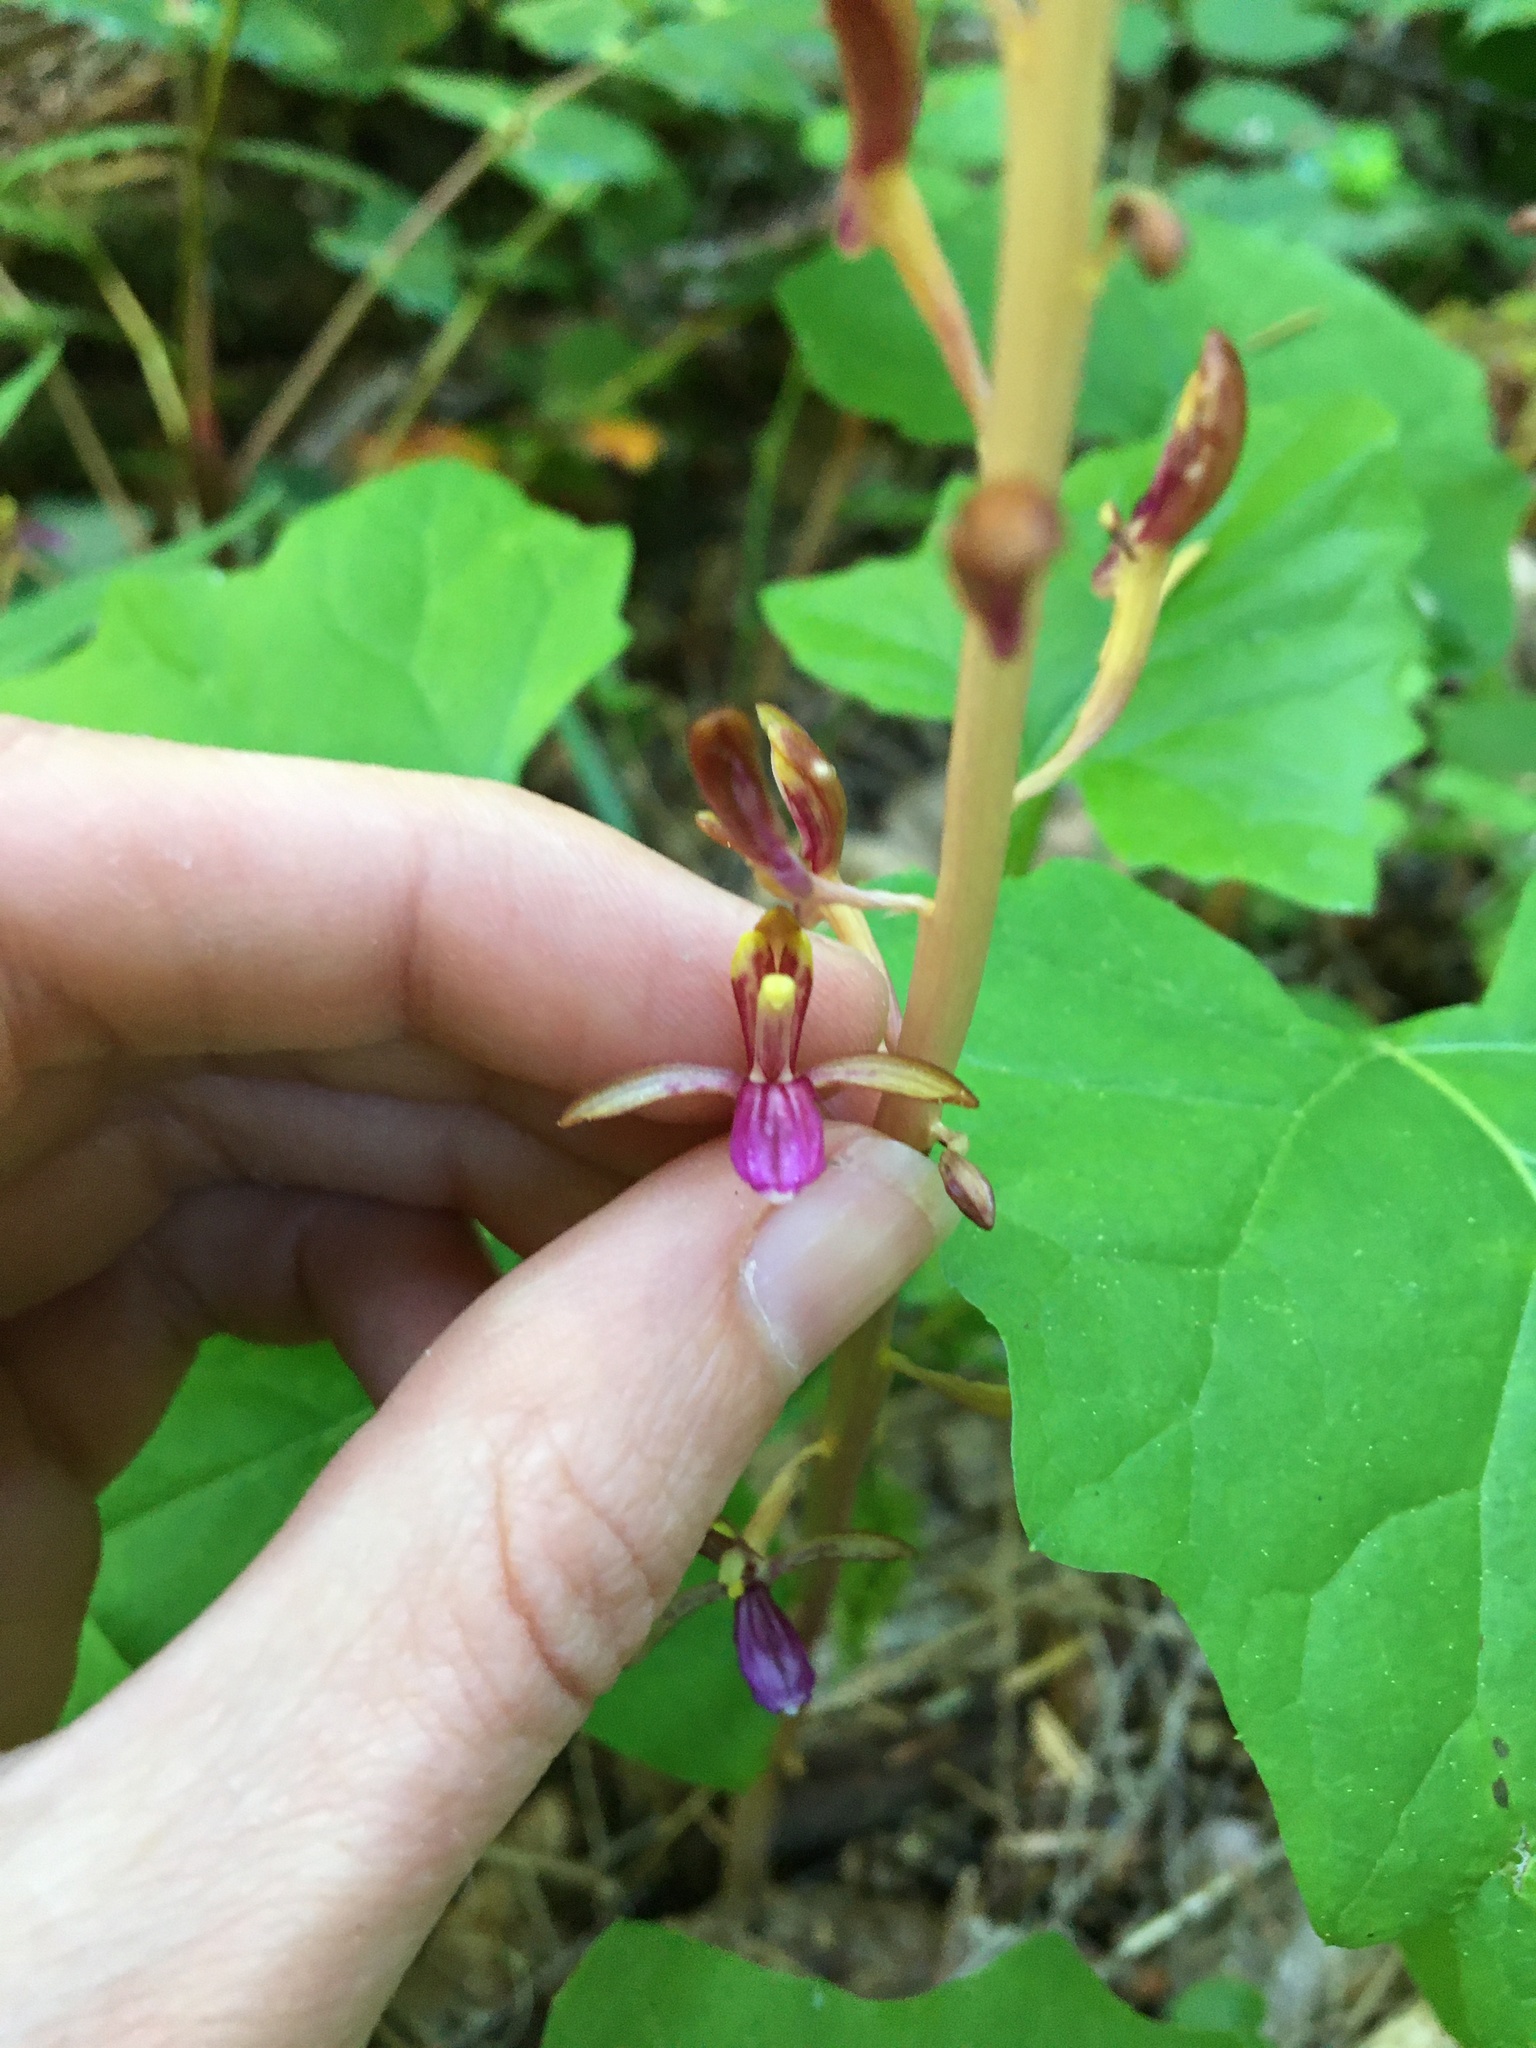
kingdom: Plantae
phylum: Tracheophyta
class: Liliopsida
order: Asparagales
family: Orchidaceae
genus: Corallorhiza
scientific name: Corallorhiza mertensiana
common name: Pacific coralroot
